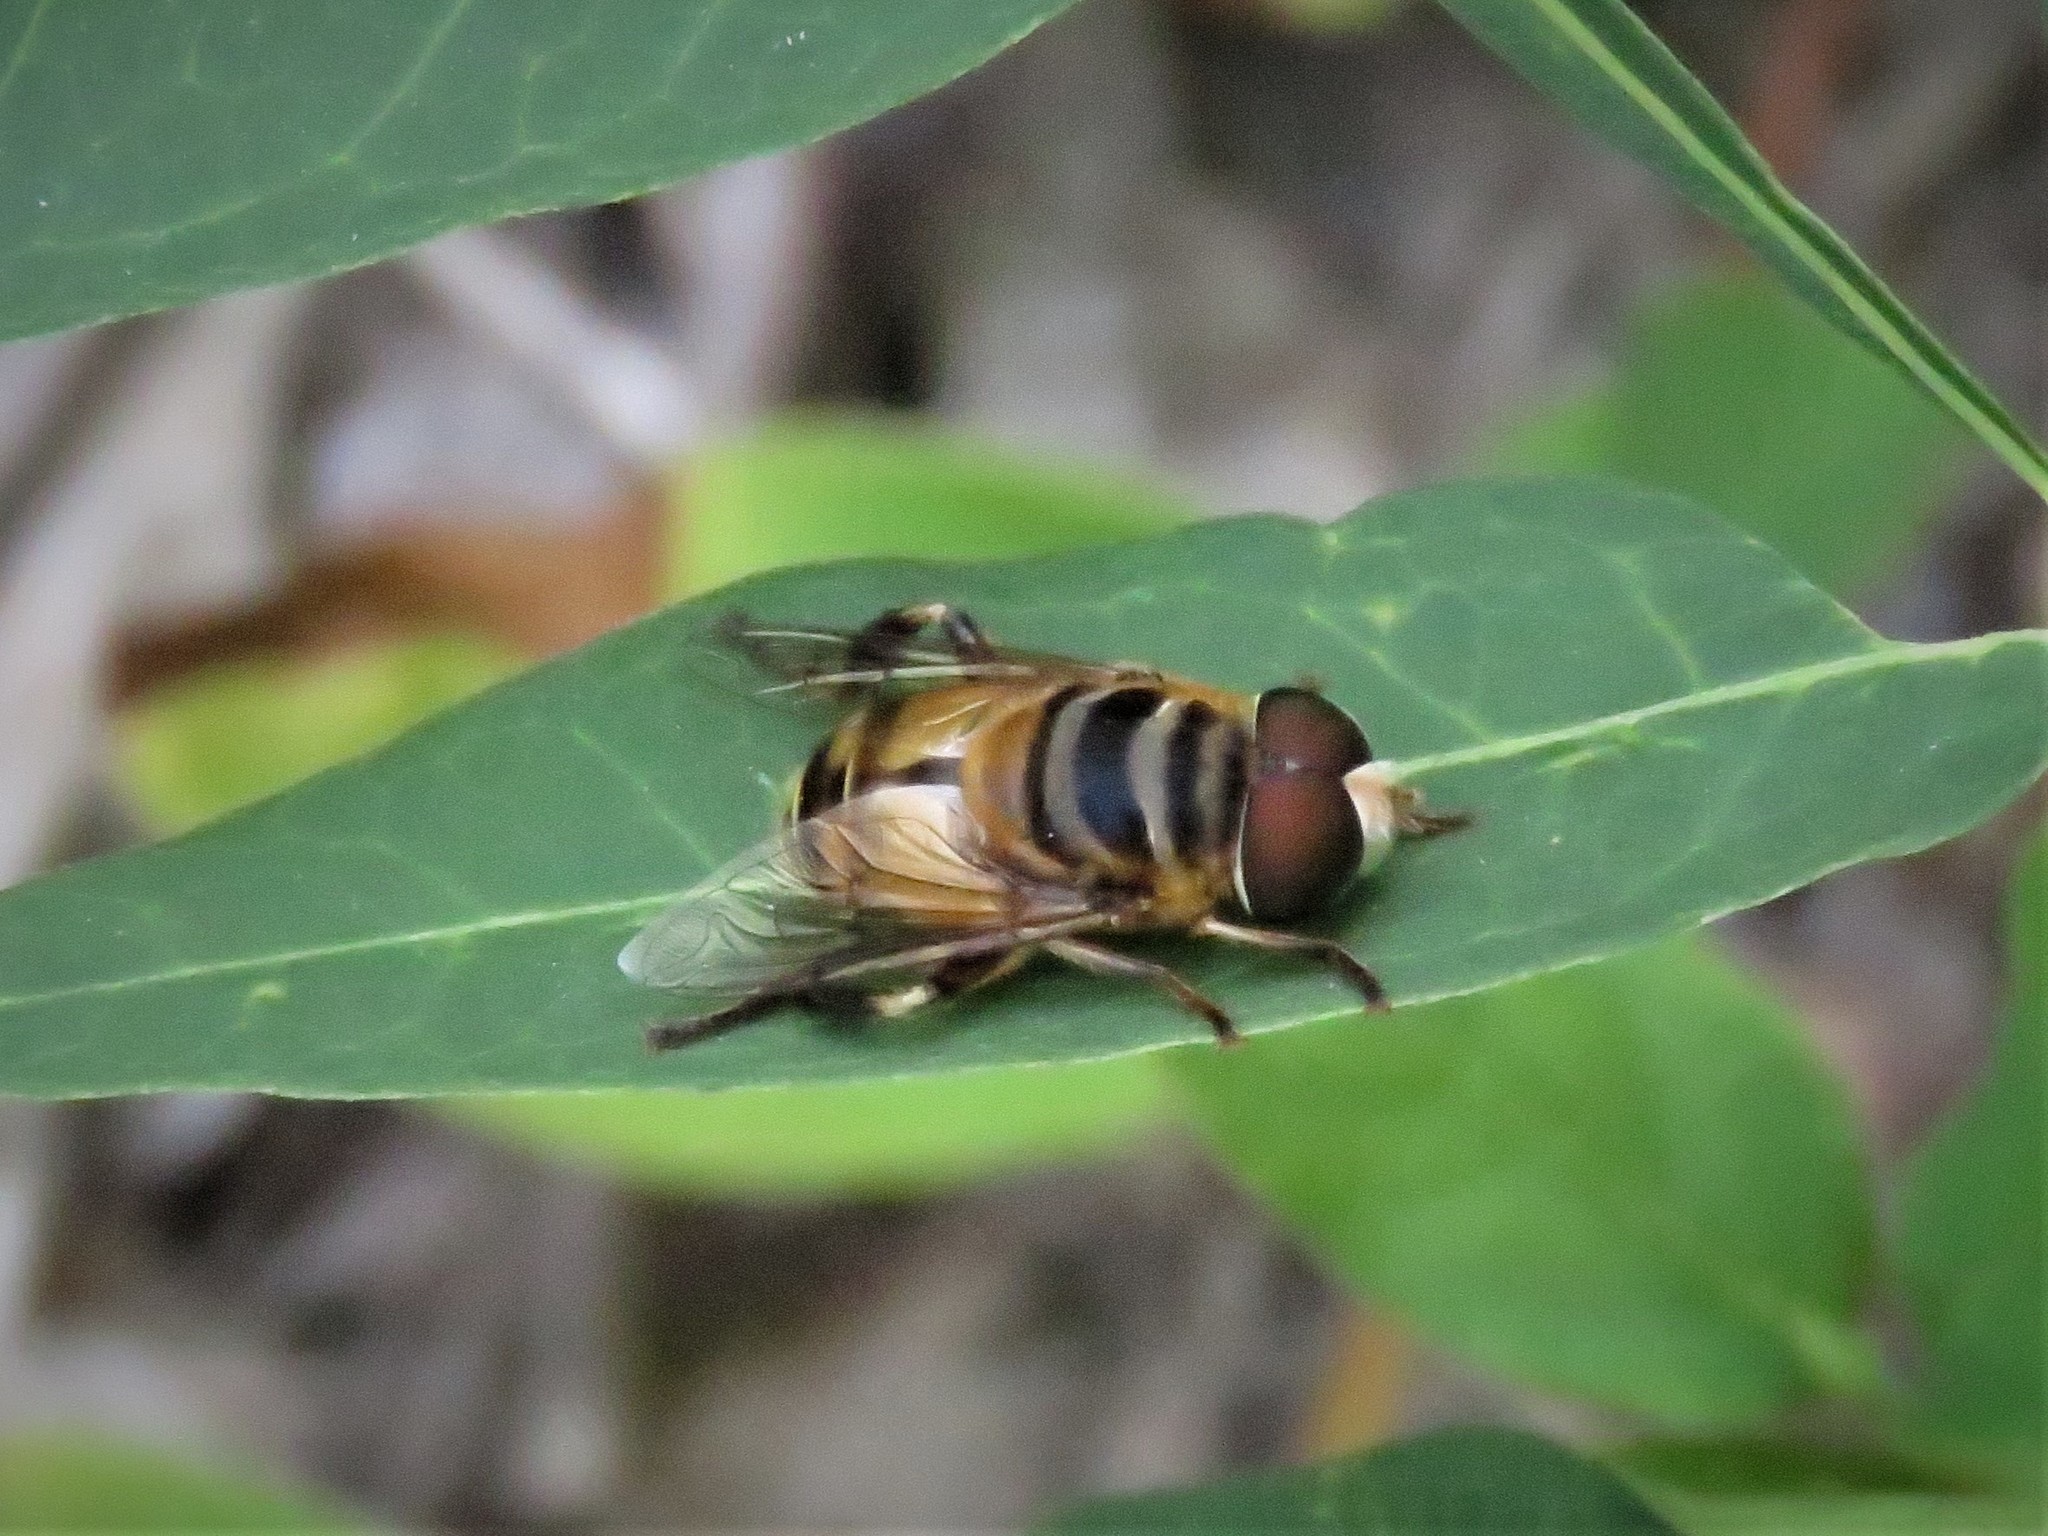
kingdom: Animalia
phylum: Arthropoda
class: Insecta
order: Diptera
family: Syrphidae
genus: Palpada
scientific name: Palpada vinetorum
